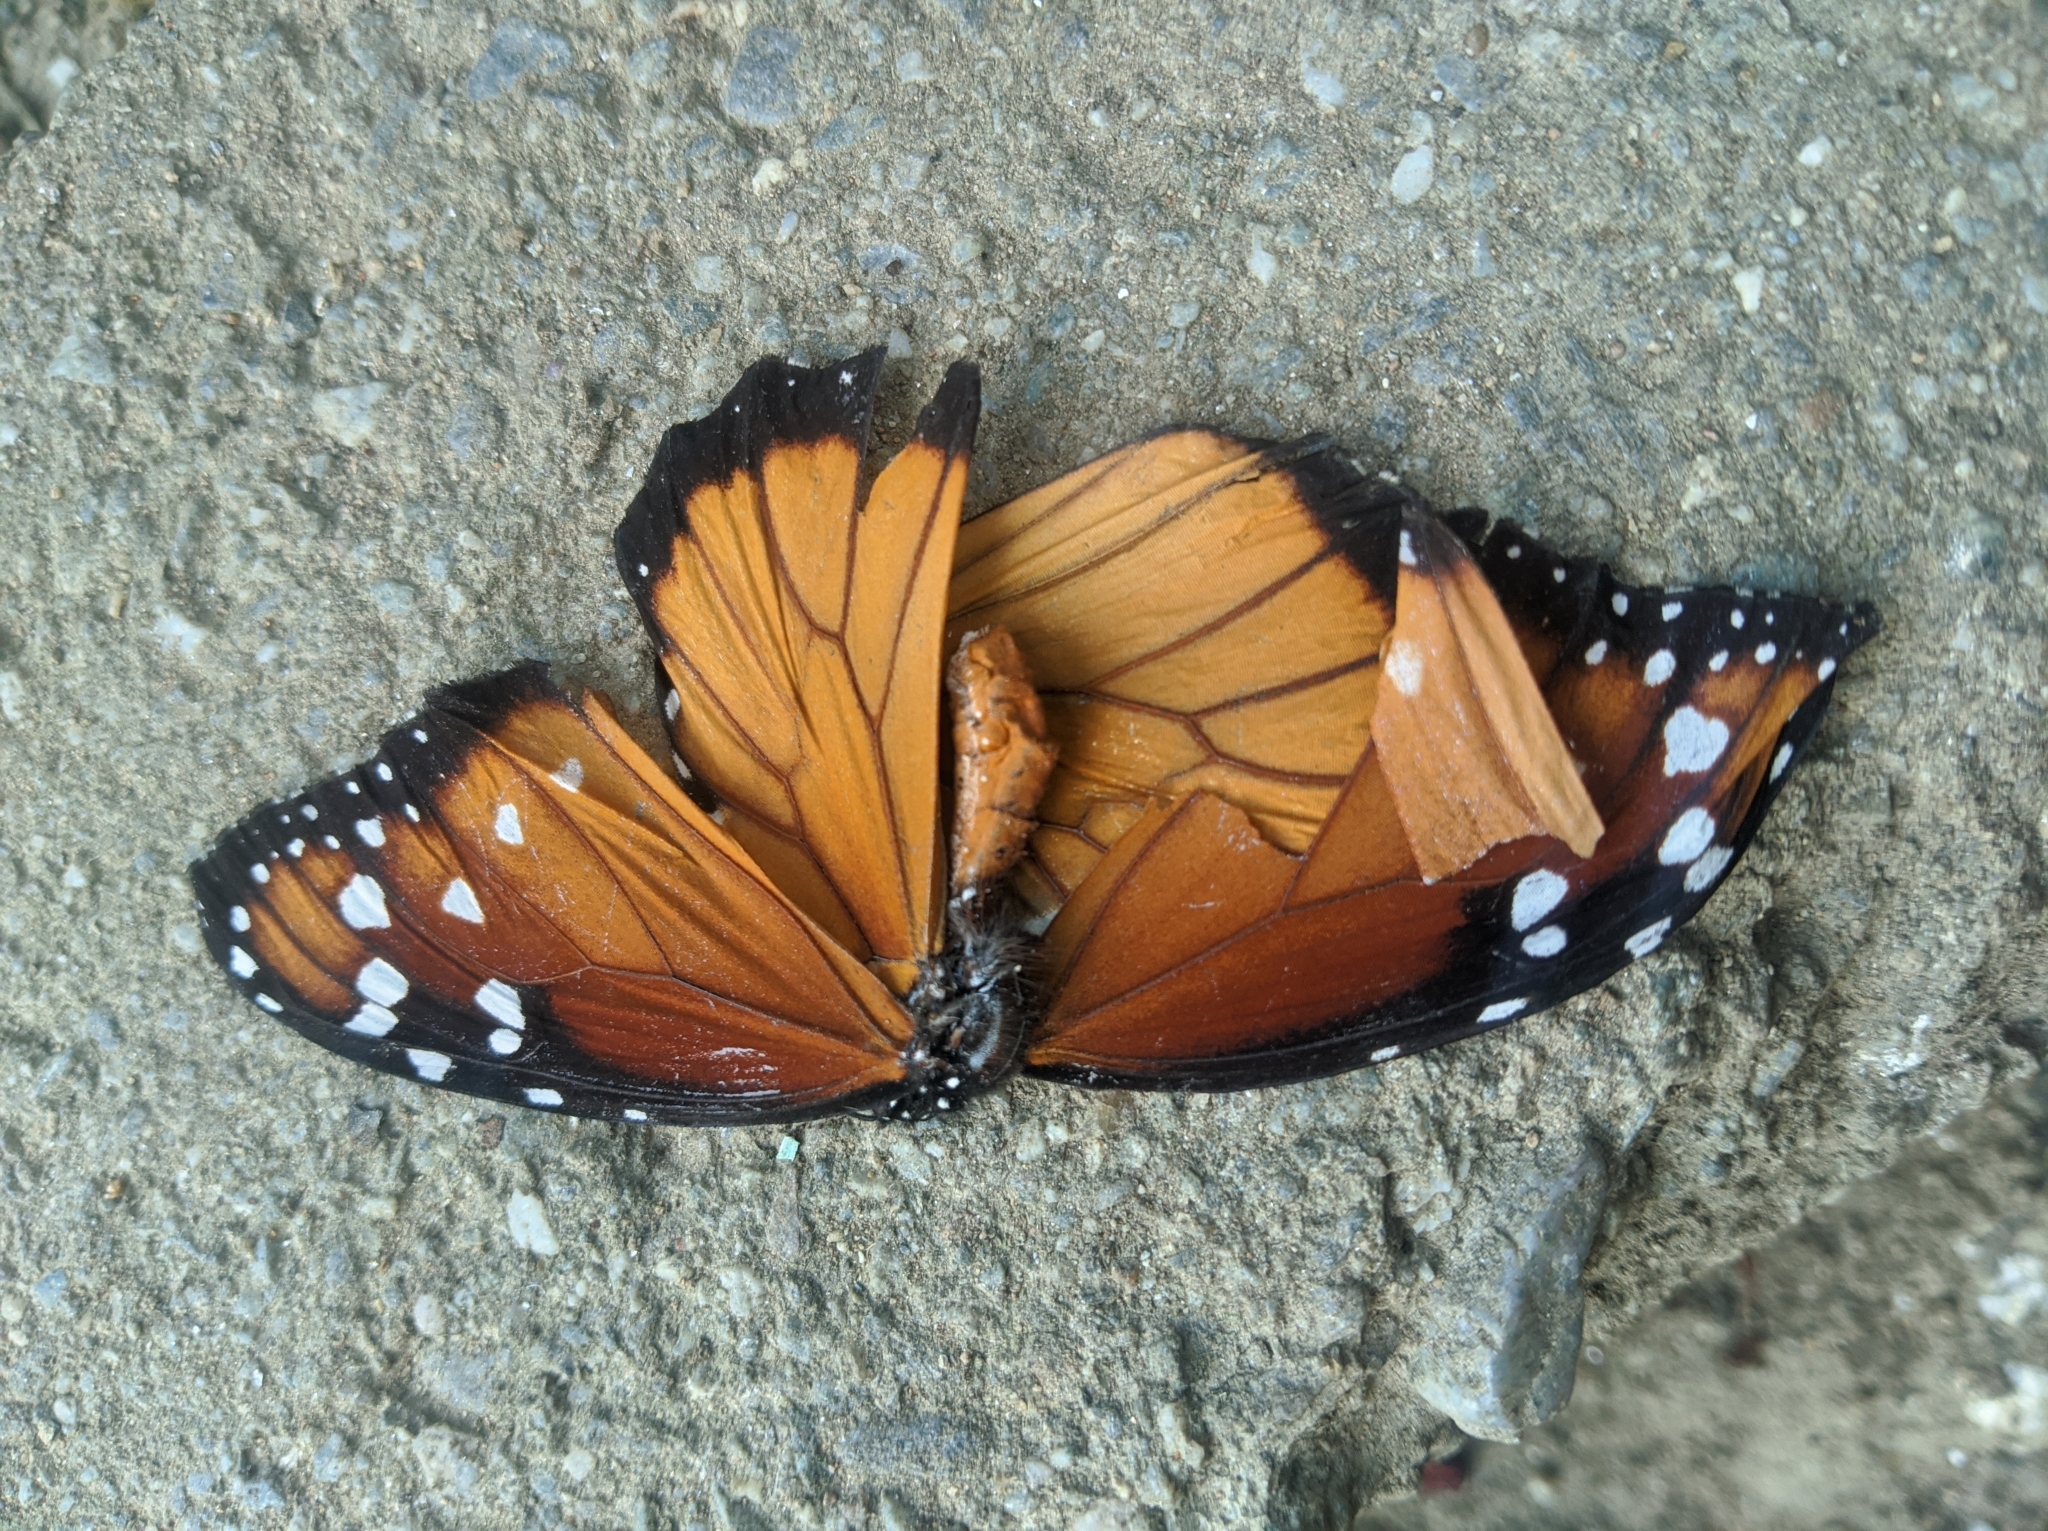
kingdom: Animalia
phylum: Arthropoda
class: Insecta
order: Lepidoptera
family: Nymphalidae
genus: Danaus
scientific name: Danaus eresimus
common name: Soldier
